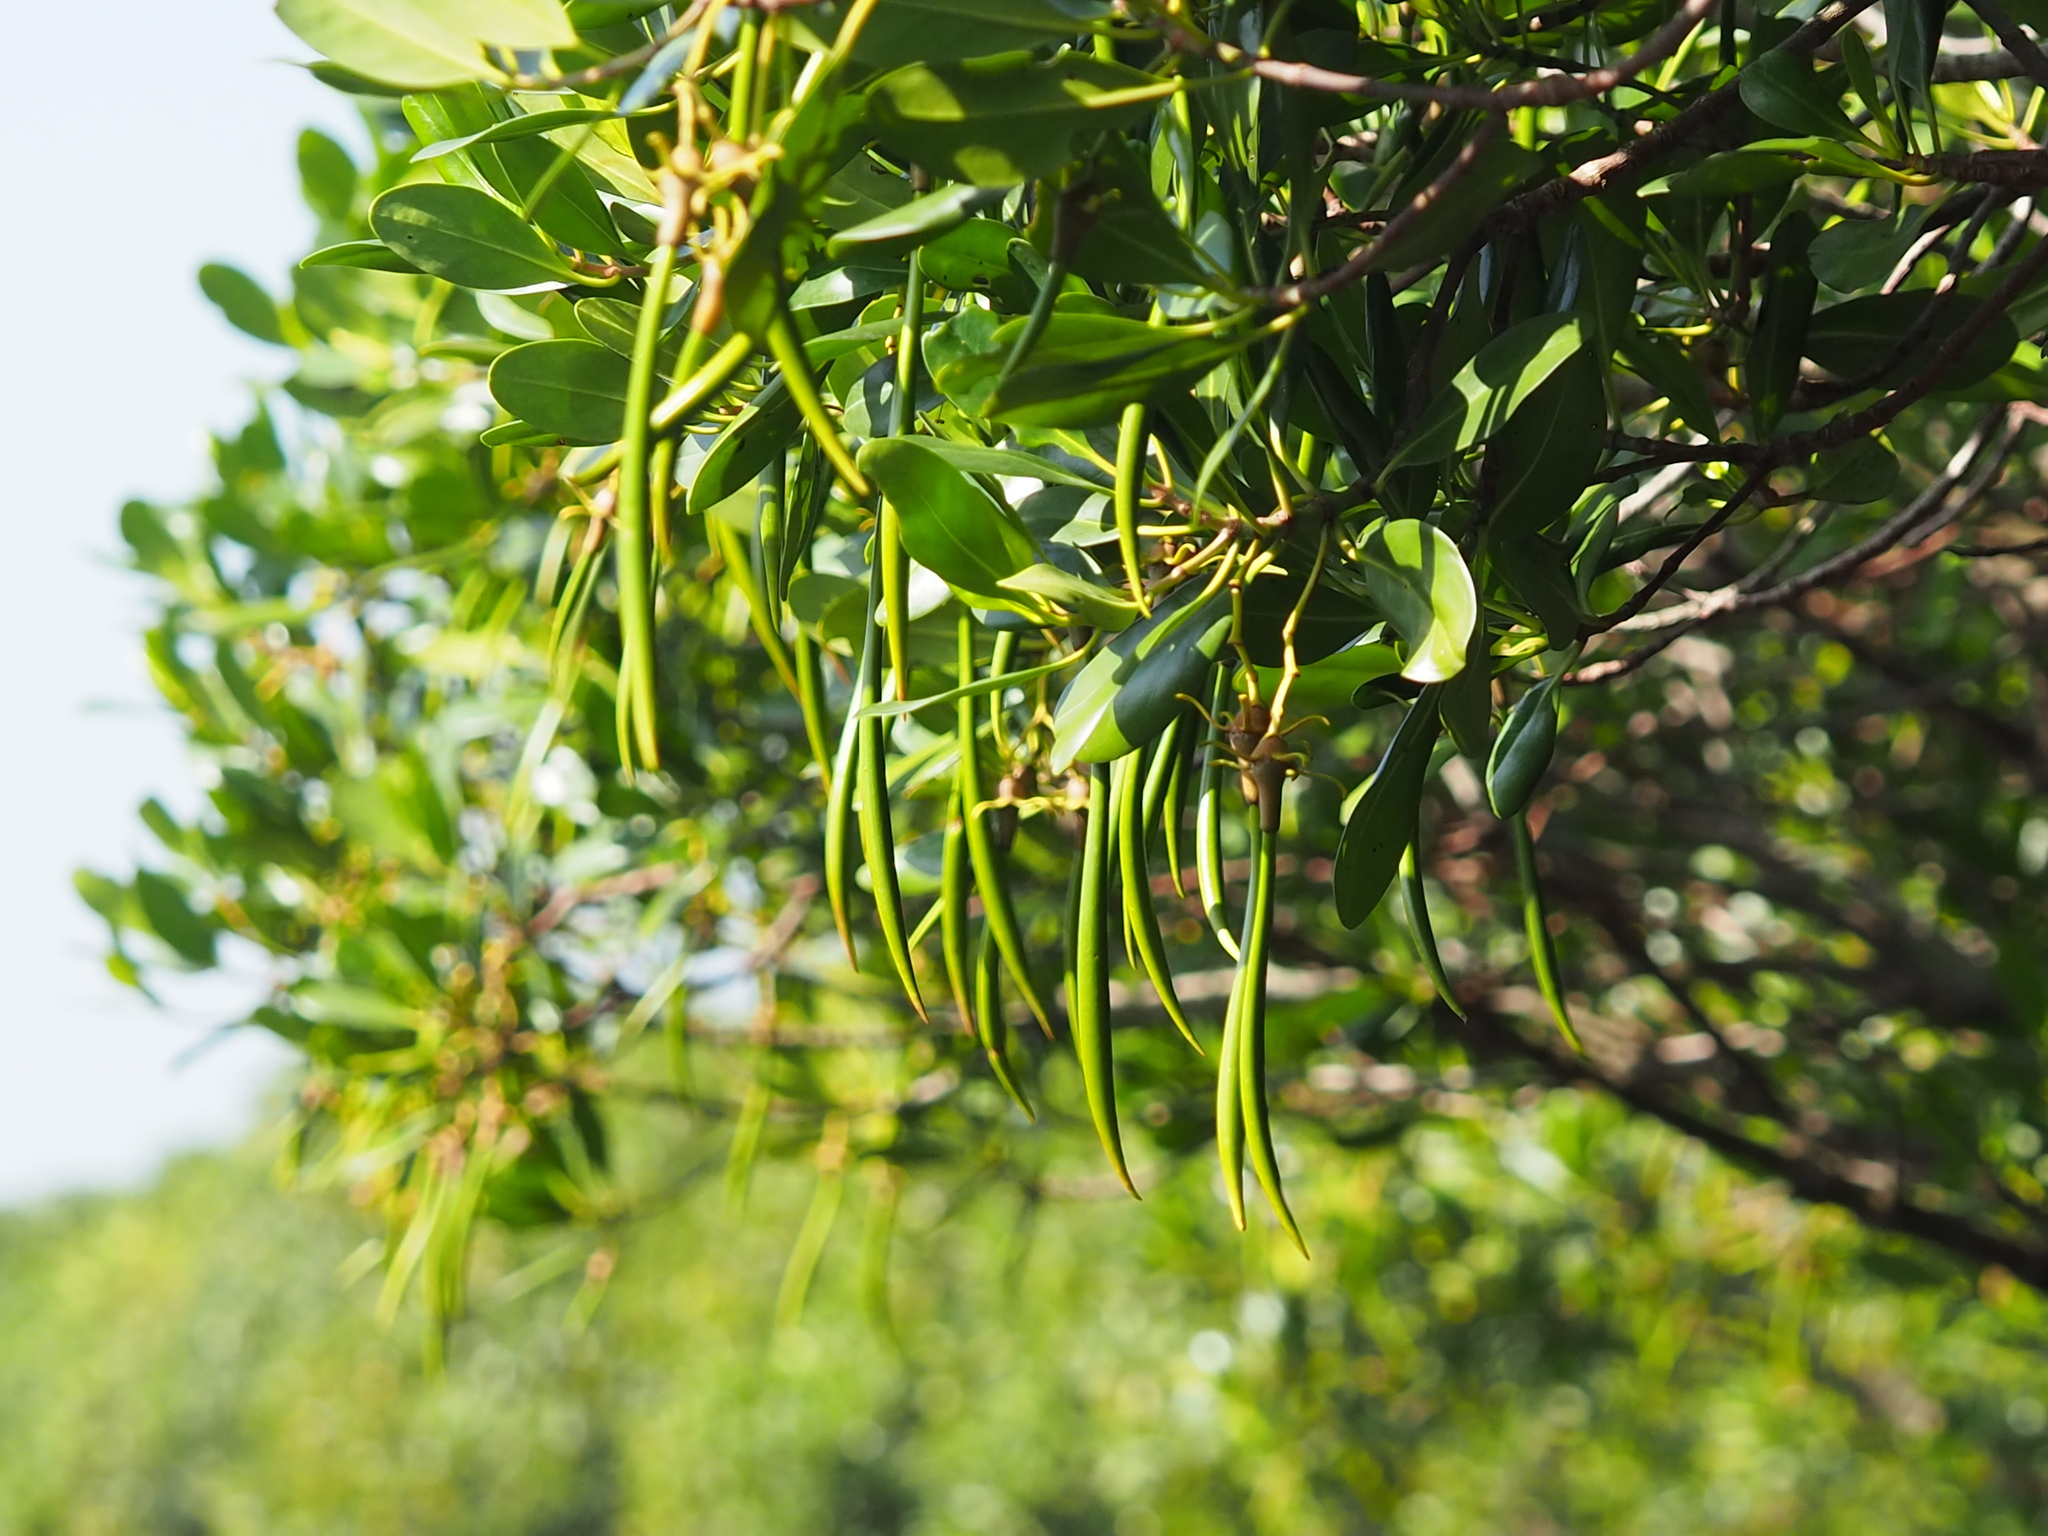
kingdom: Plantae
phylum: Tracheophyta
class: Magnoliopsida
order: Malpighiales
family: Rhizophoraceae
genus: Kandelia
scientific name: Kandelia obovata
